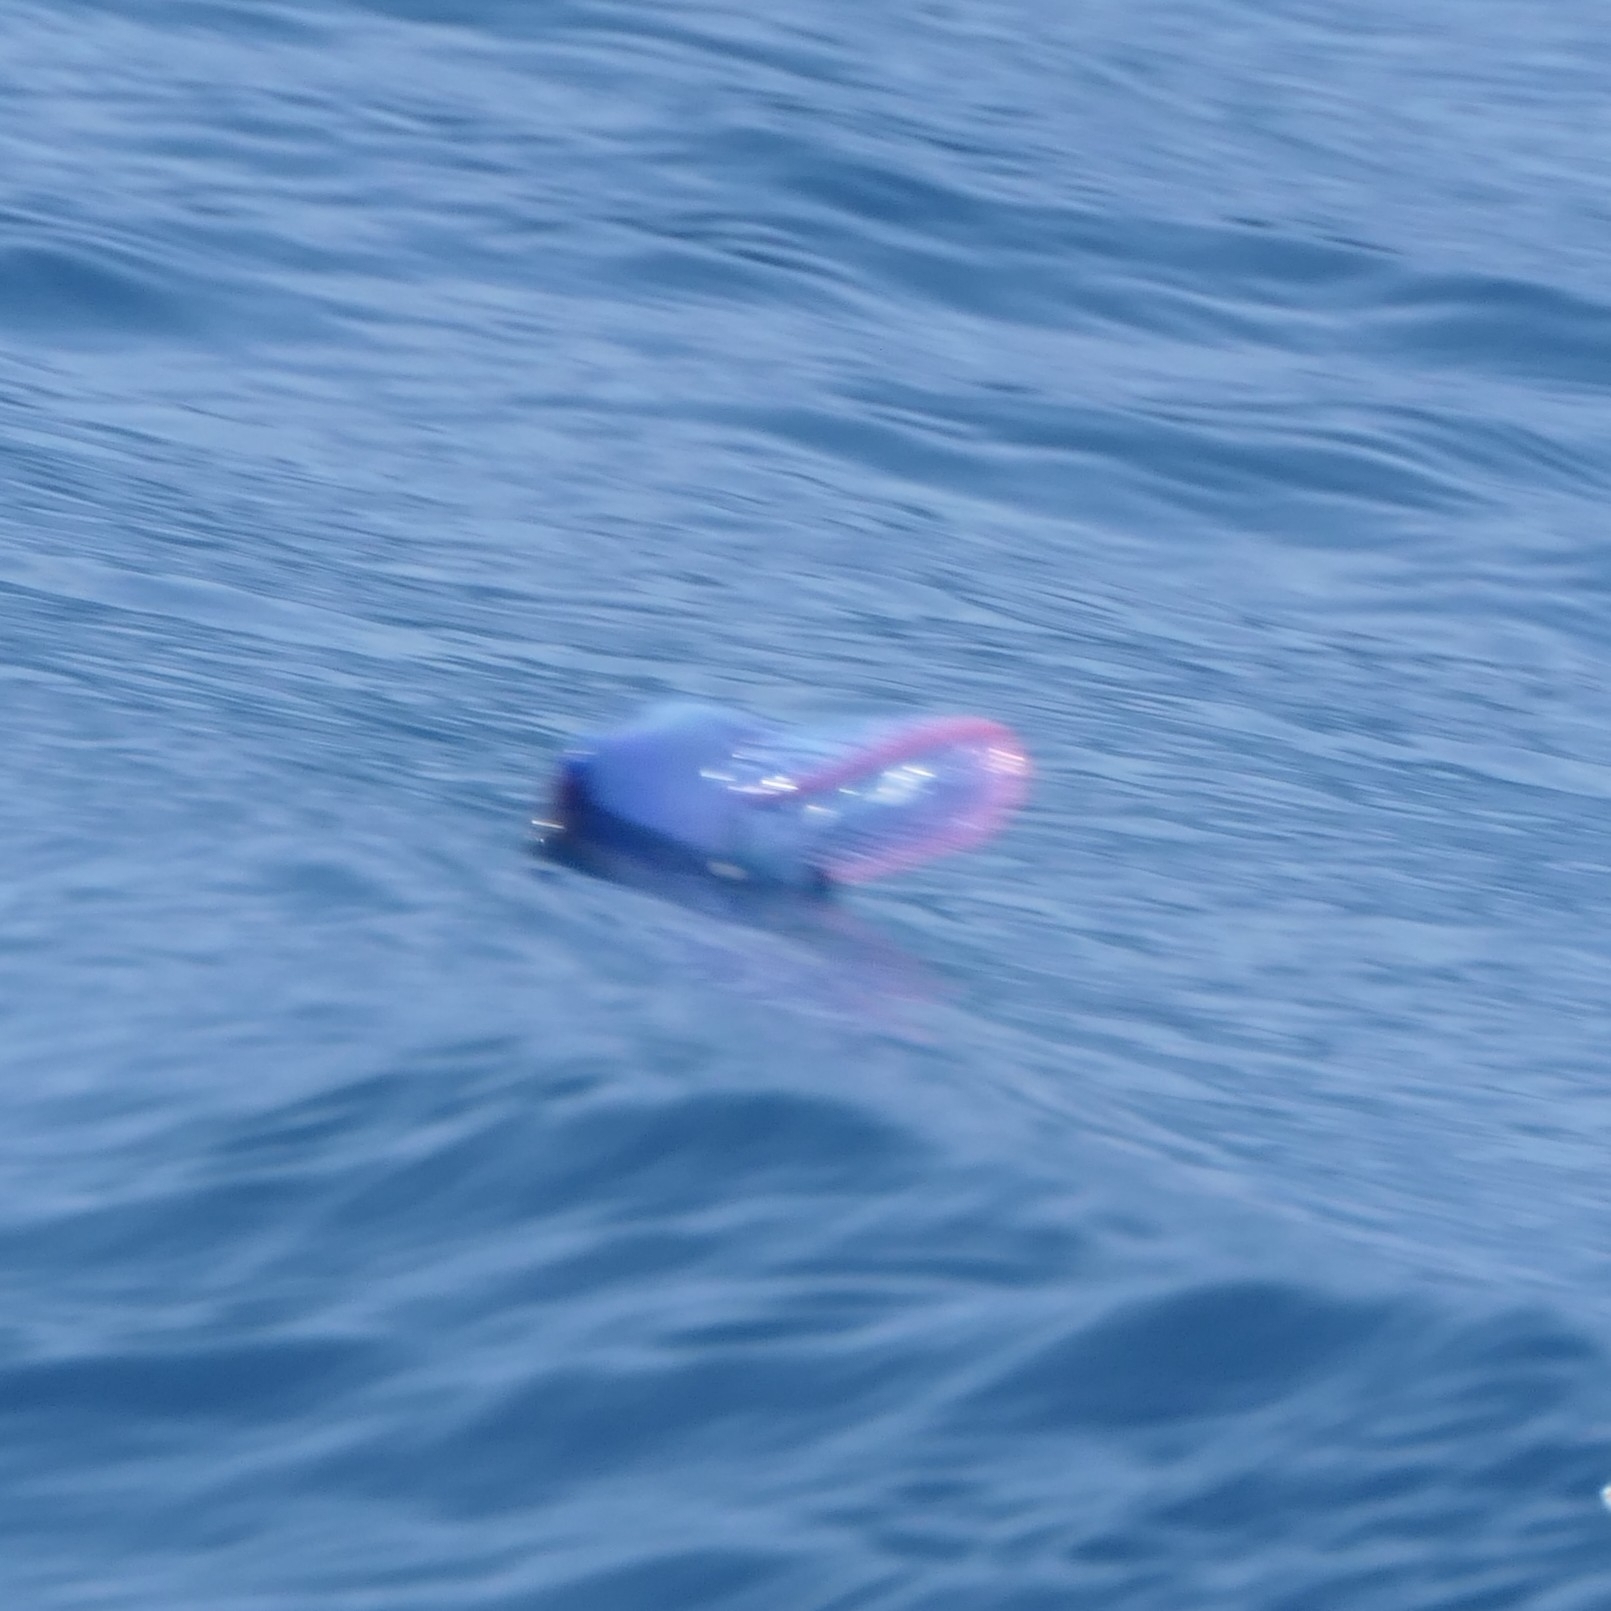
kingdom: Animalia
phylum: Cnidaria
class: Hydrozoa
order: Siphonophorae
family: Physaliidae
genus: Physalia
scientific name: Physalia physalis
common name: Portuguese man-of-war
